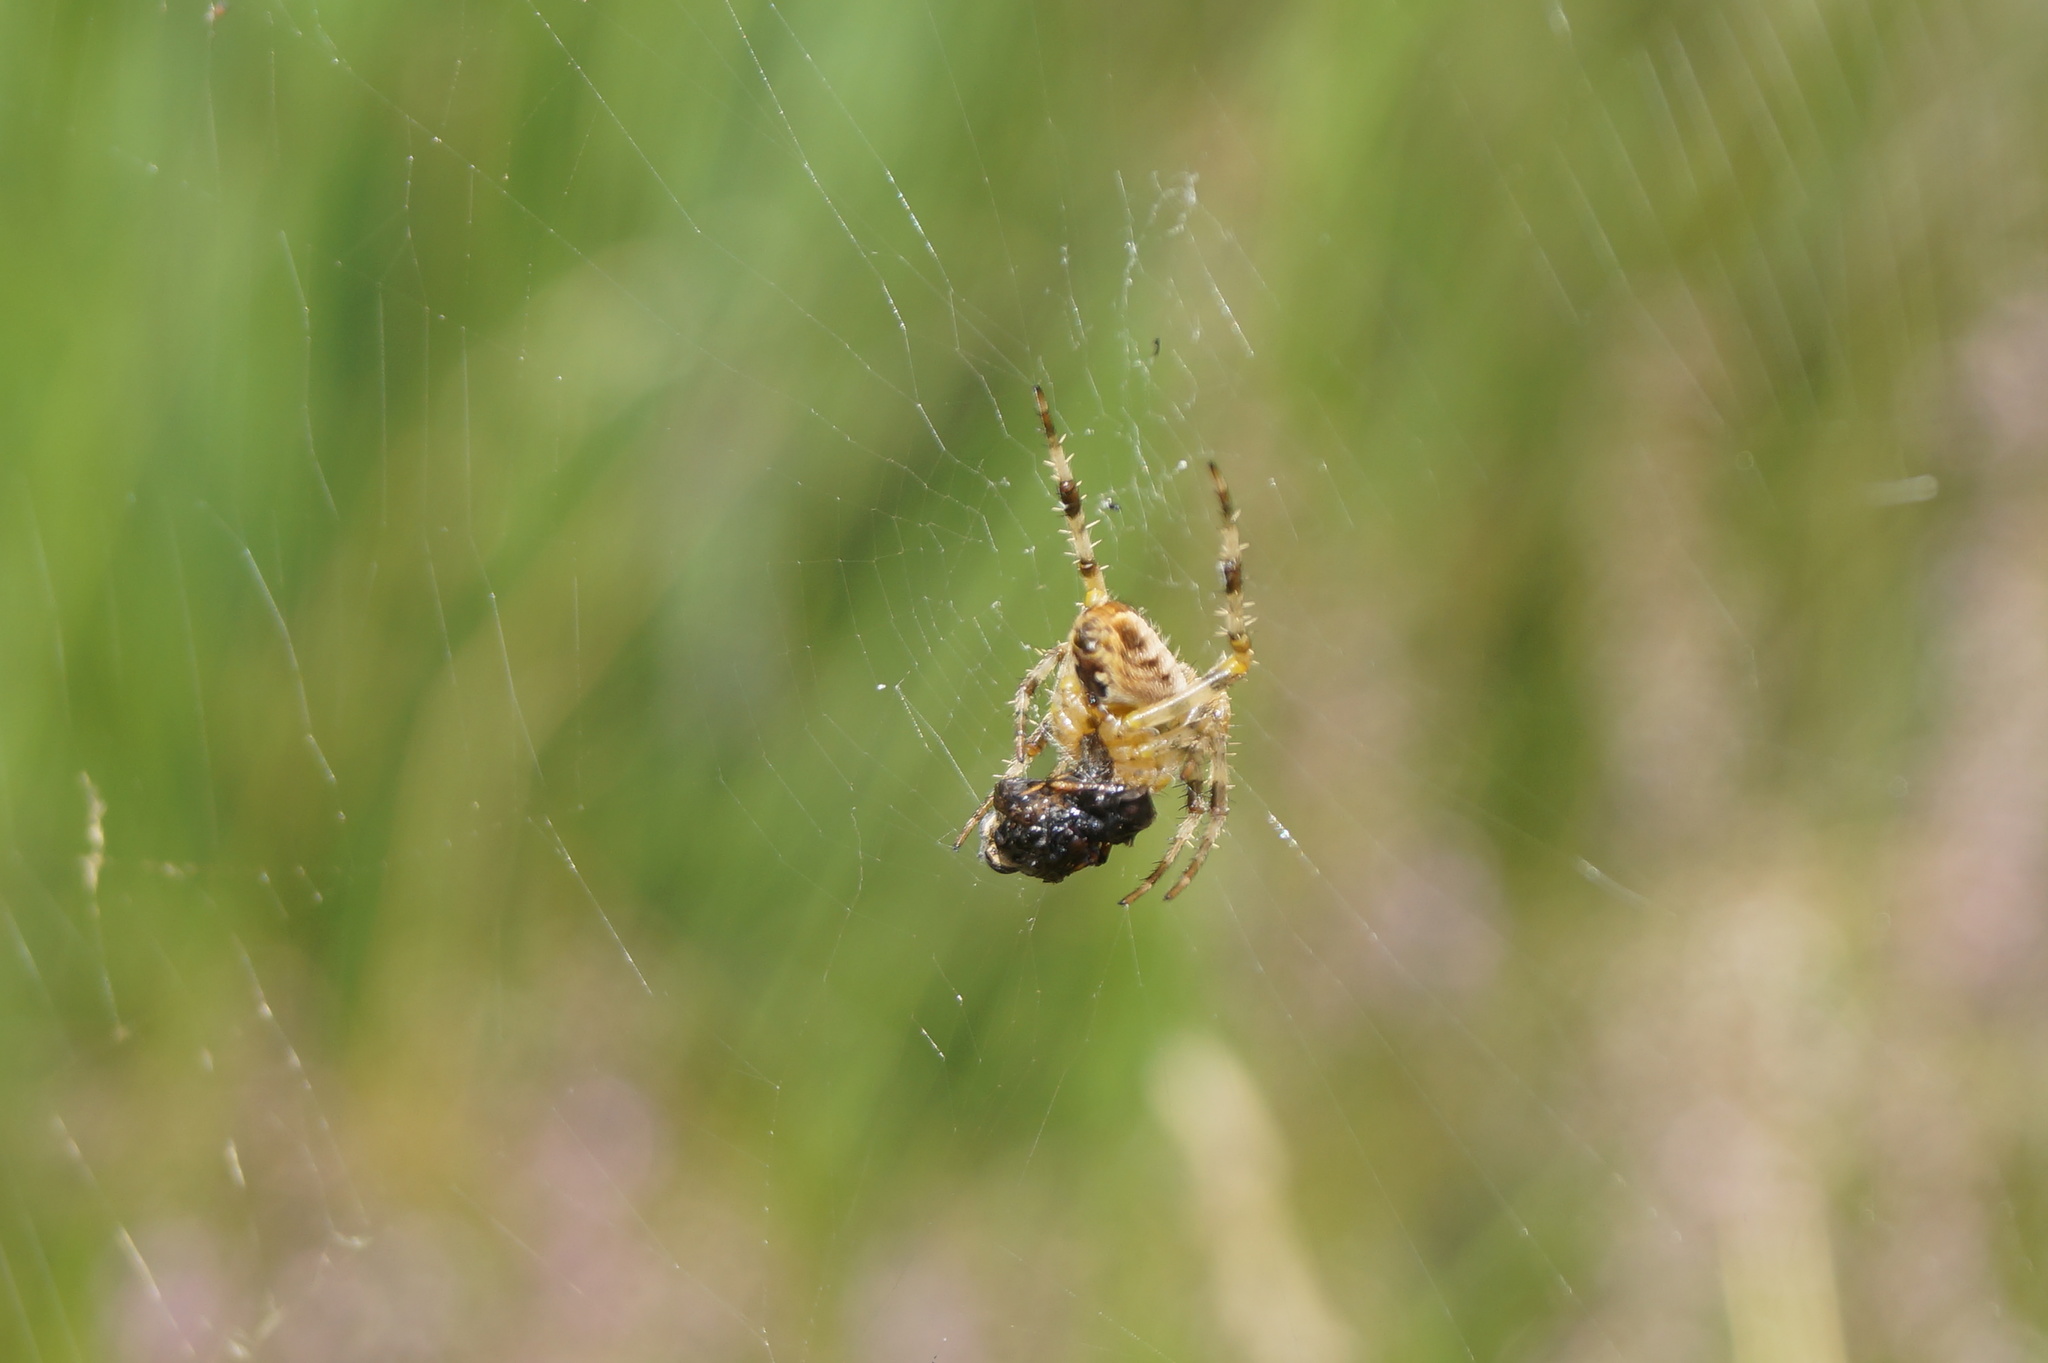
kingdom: Animalia
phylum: Arthropoda
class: Arachnida
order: Araneae
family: Araneidae
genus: Araneus
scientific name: Araneus diadematus
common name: Cross orbweaver
